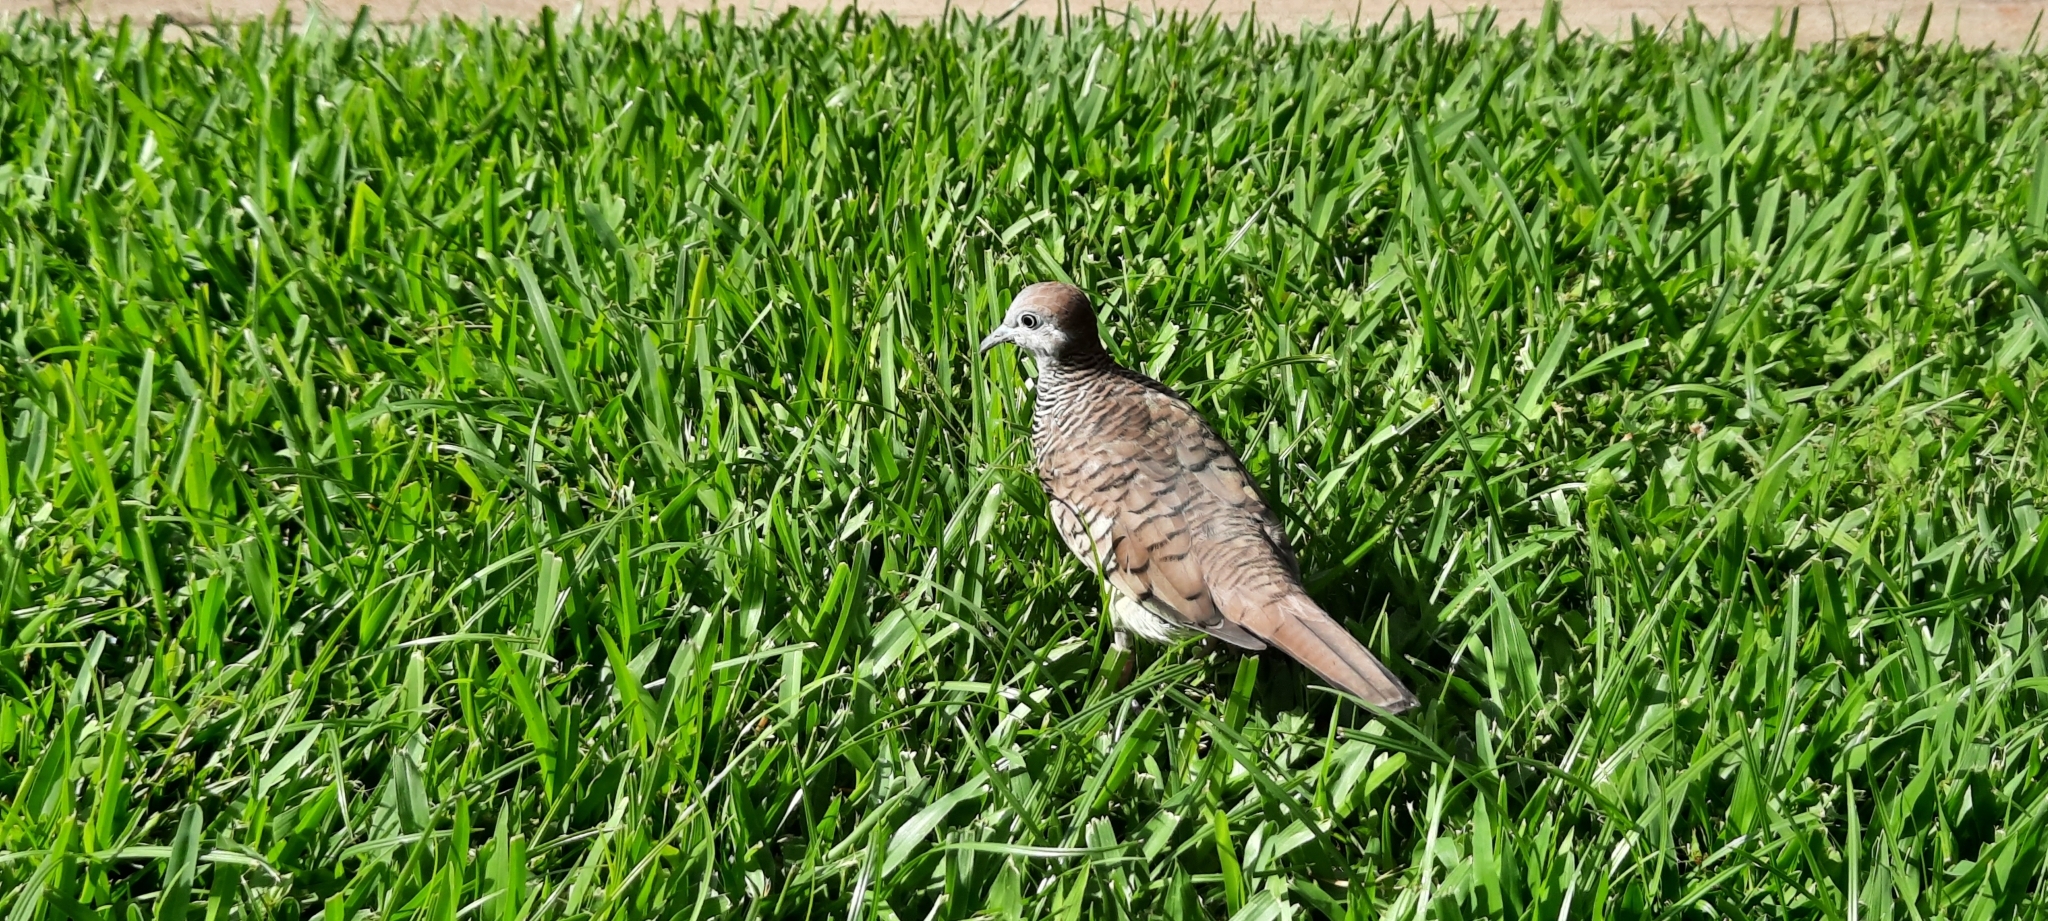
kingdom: Animalia
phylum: Chordata
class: Aves
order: Columbiformes
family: Columbidae
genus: Geopelia
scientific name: Geopelia striata
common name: Zebra dove
